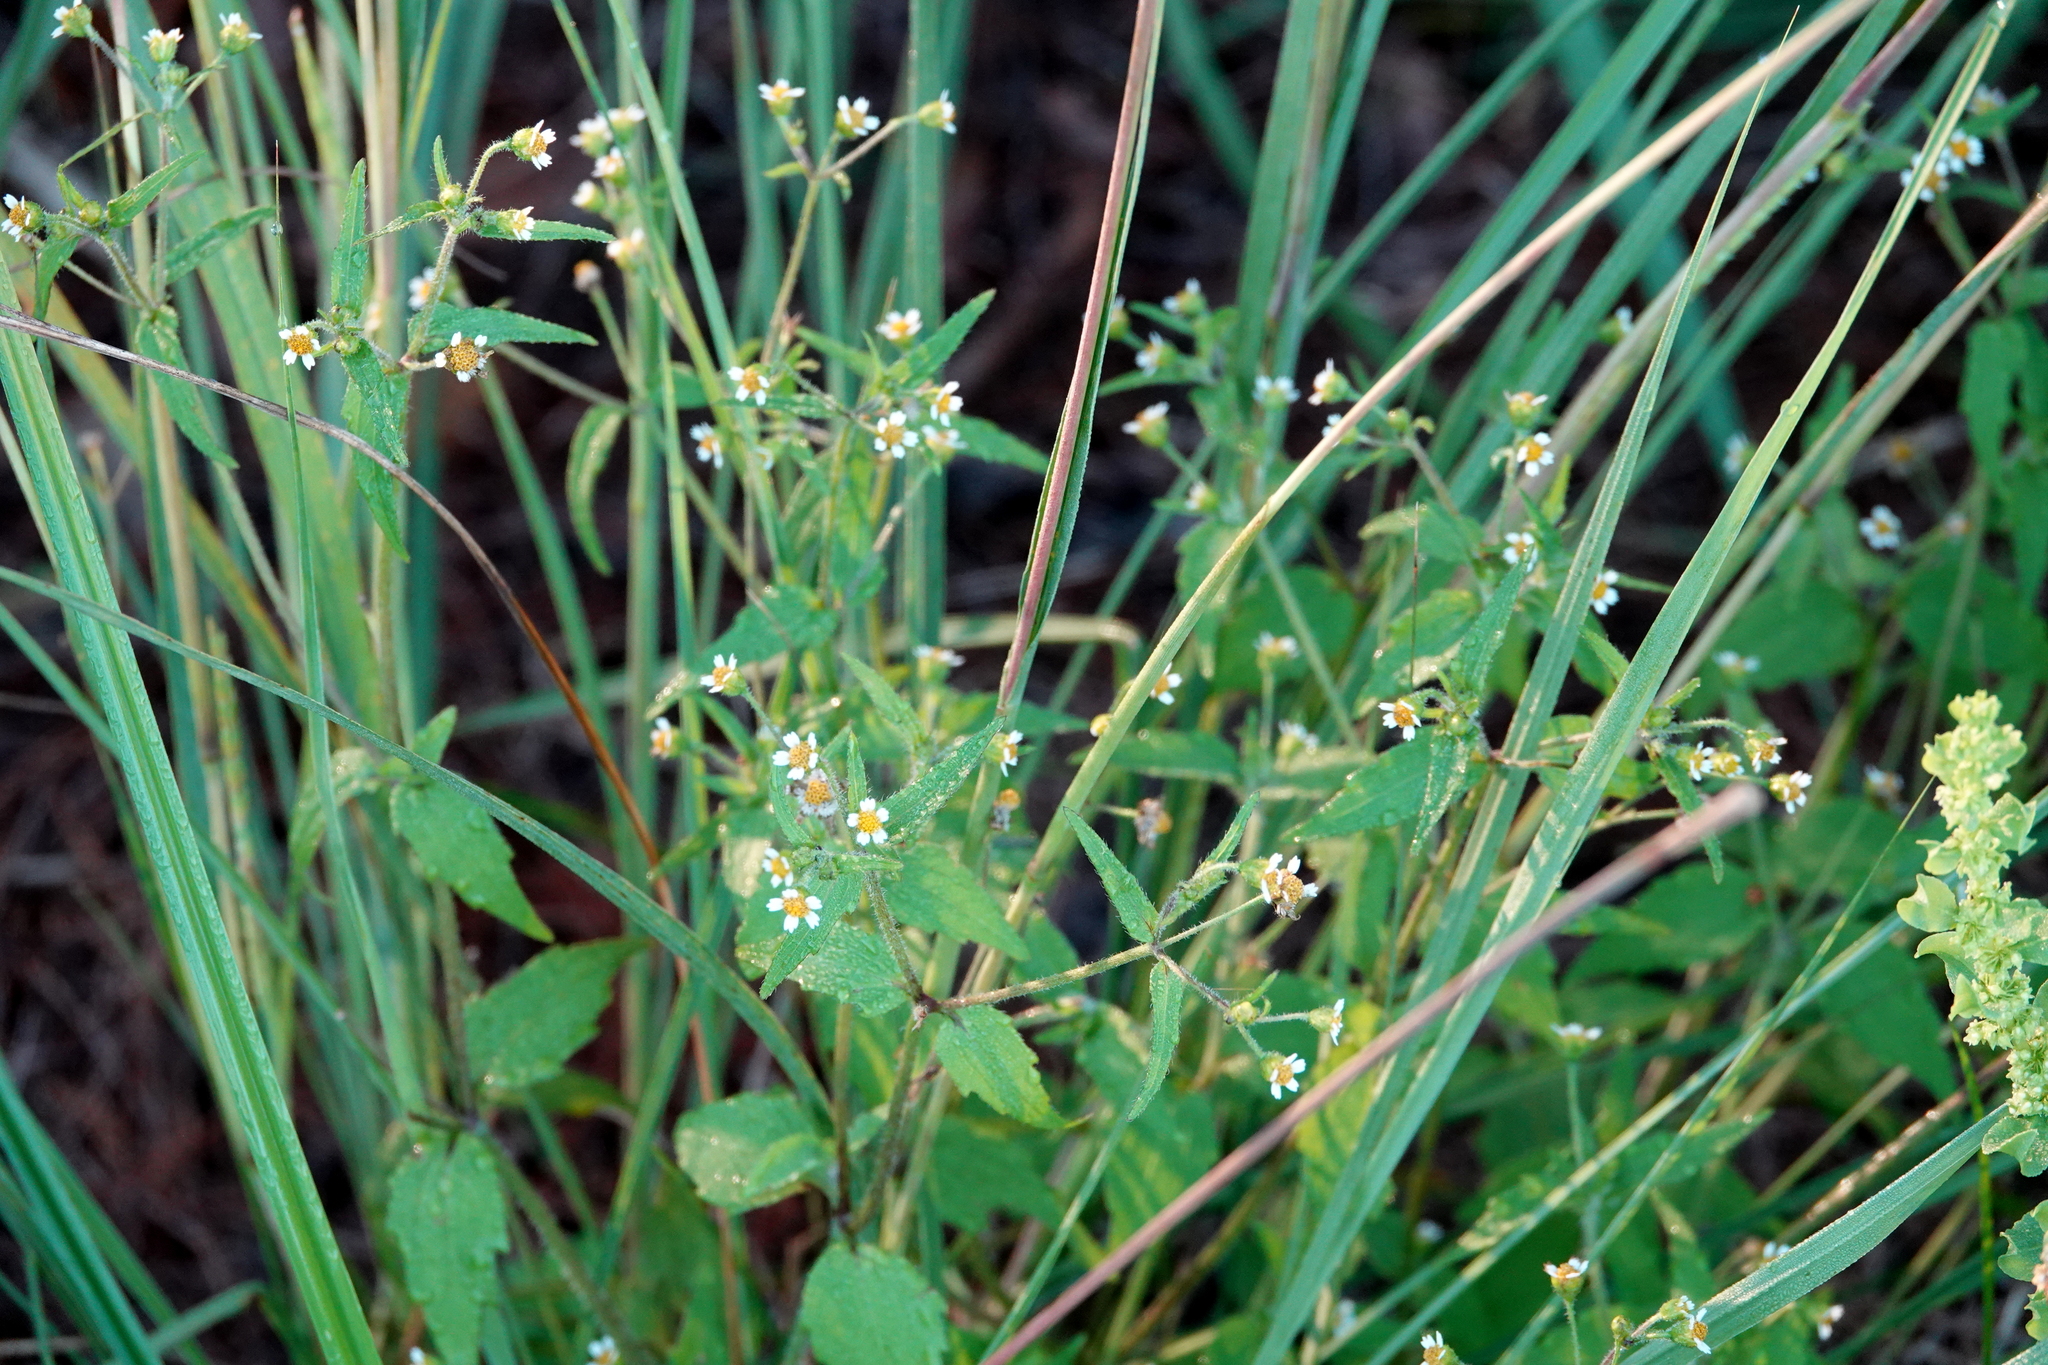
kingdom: Plantae
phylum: Tracheophyta
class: Magnoliopsida
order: Asterales
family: Asteraceae
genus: Galinsoga
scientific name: Galinsoga quadriradiata
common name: Shaggy soldier
